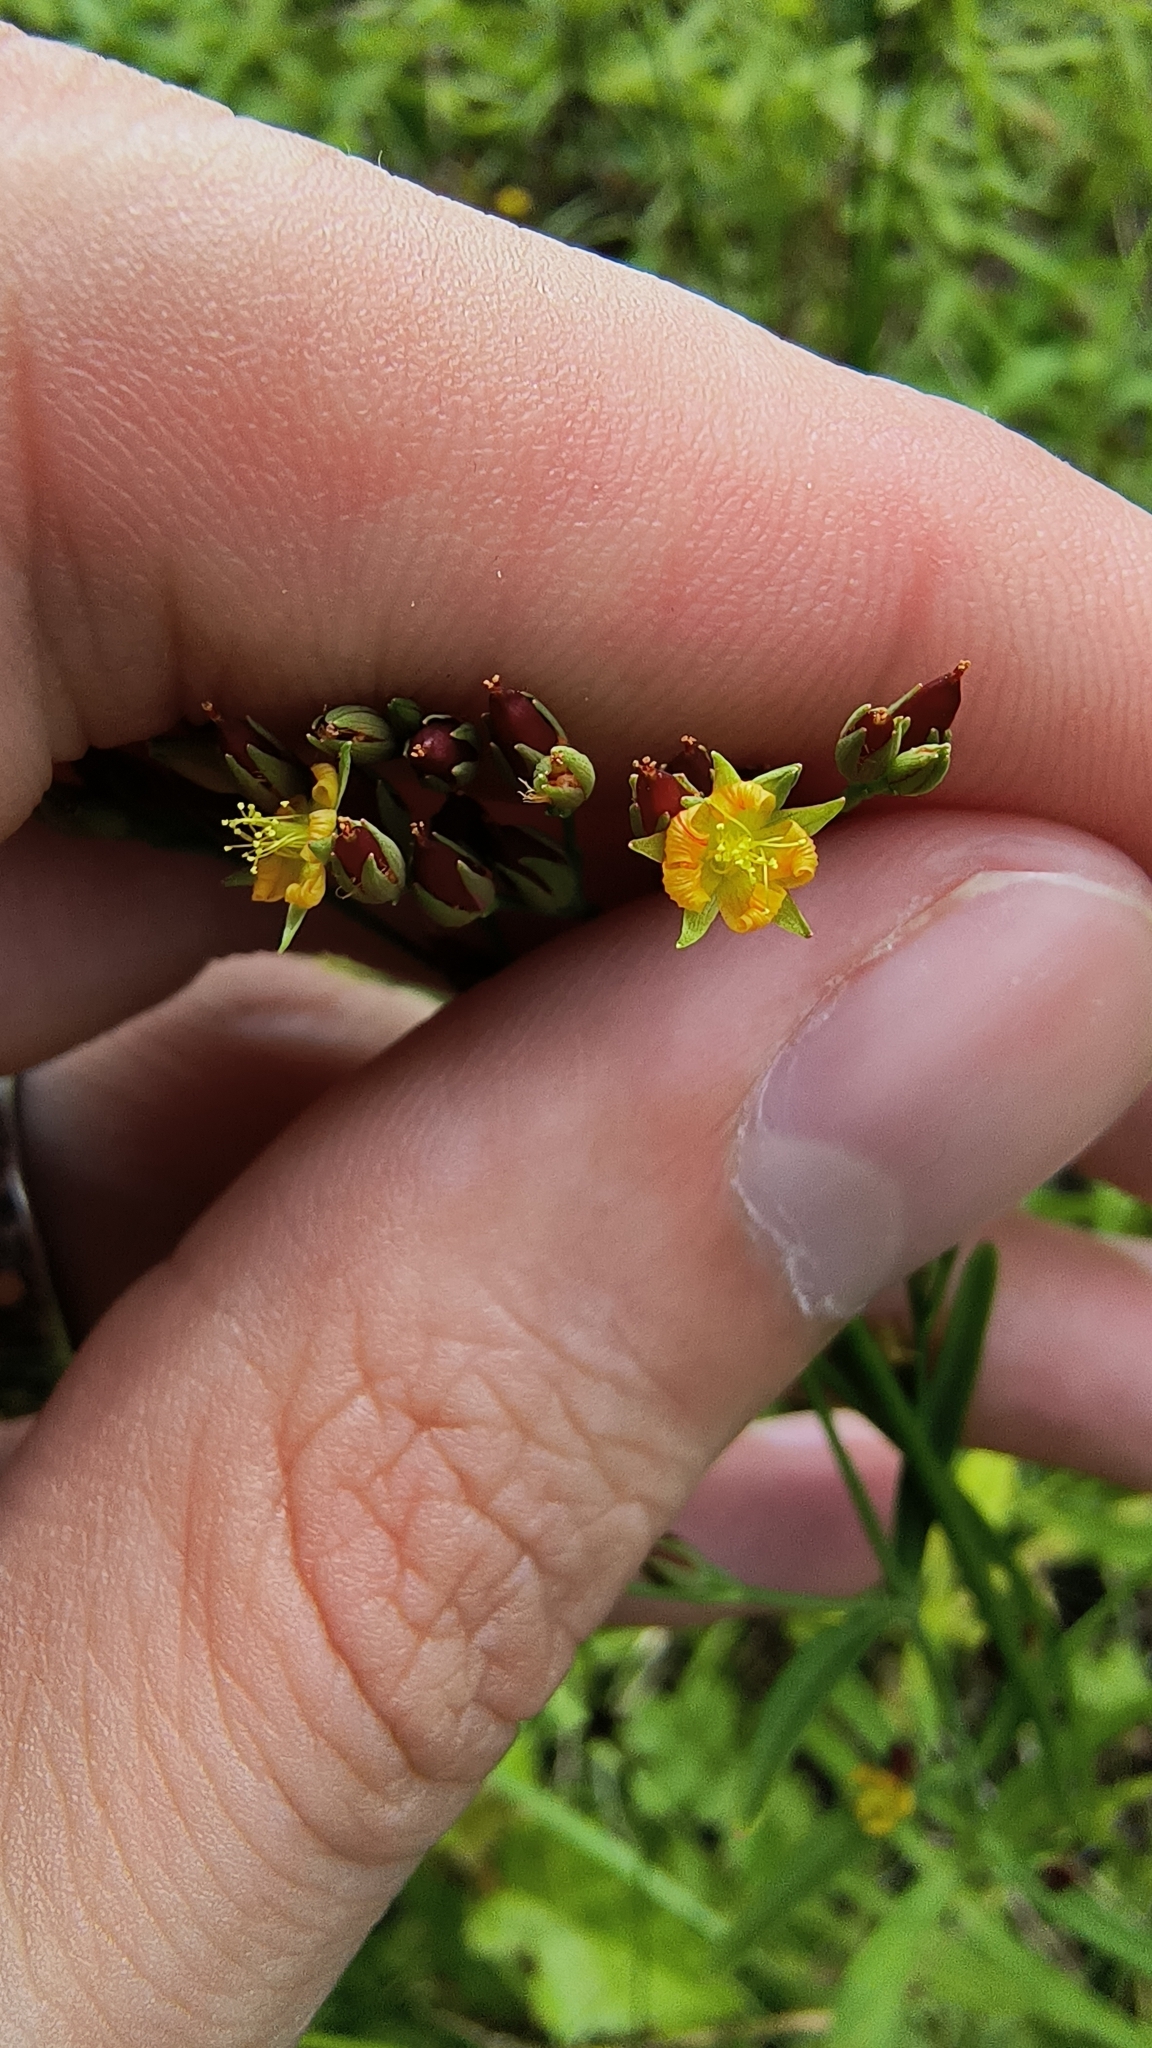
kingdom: Plantae
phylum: Tracheophyta
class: Magnoliopsida
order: Malpighiales
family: Hypericaceae
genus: Hypericum
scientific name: Hypericum canadense
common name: Irish st. john's-wort
